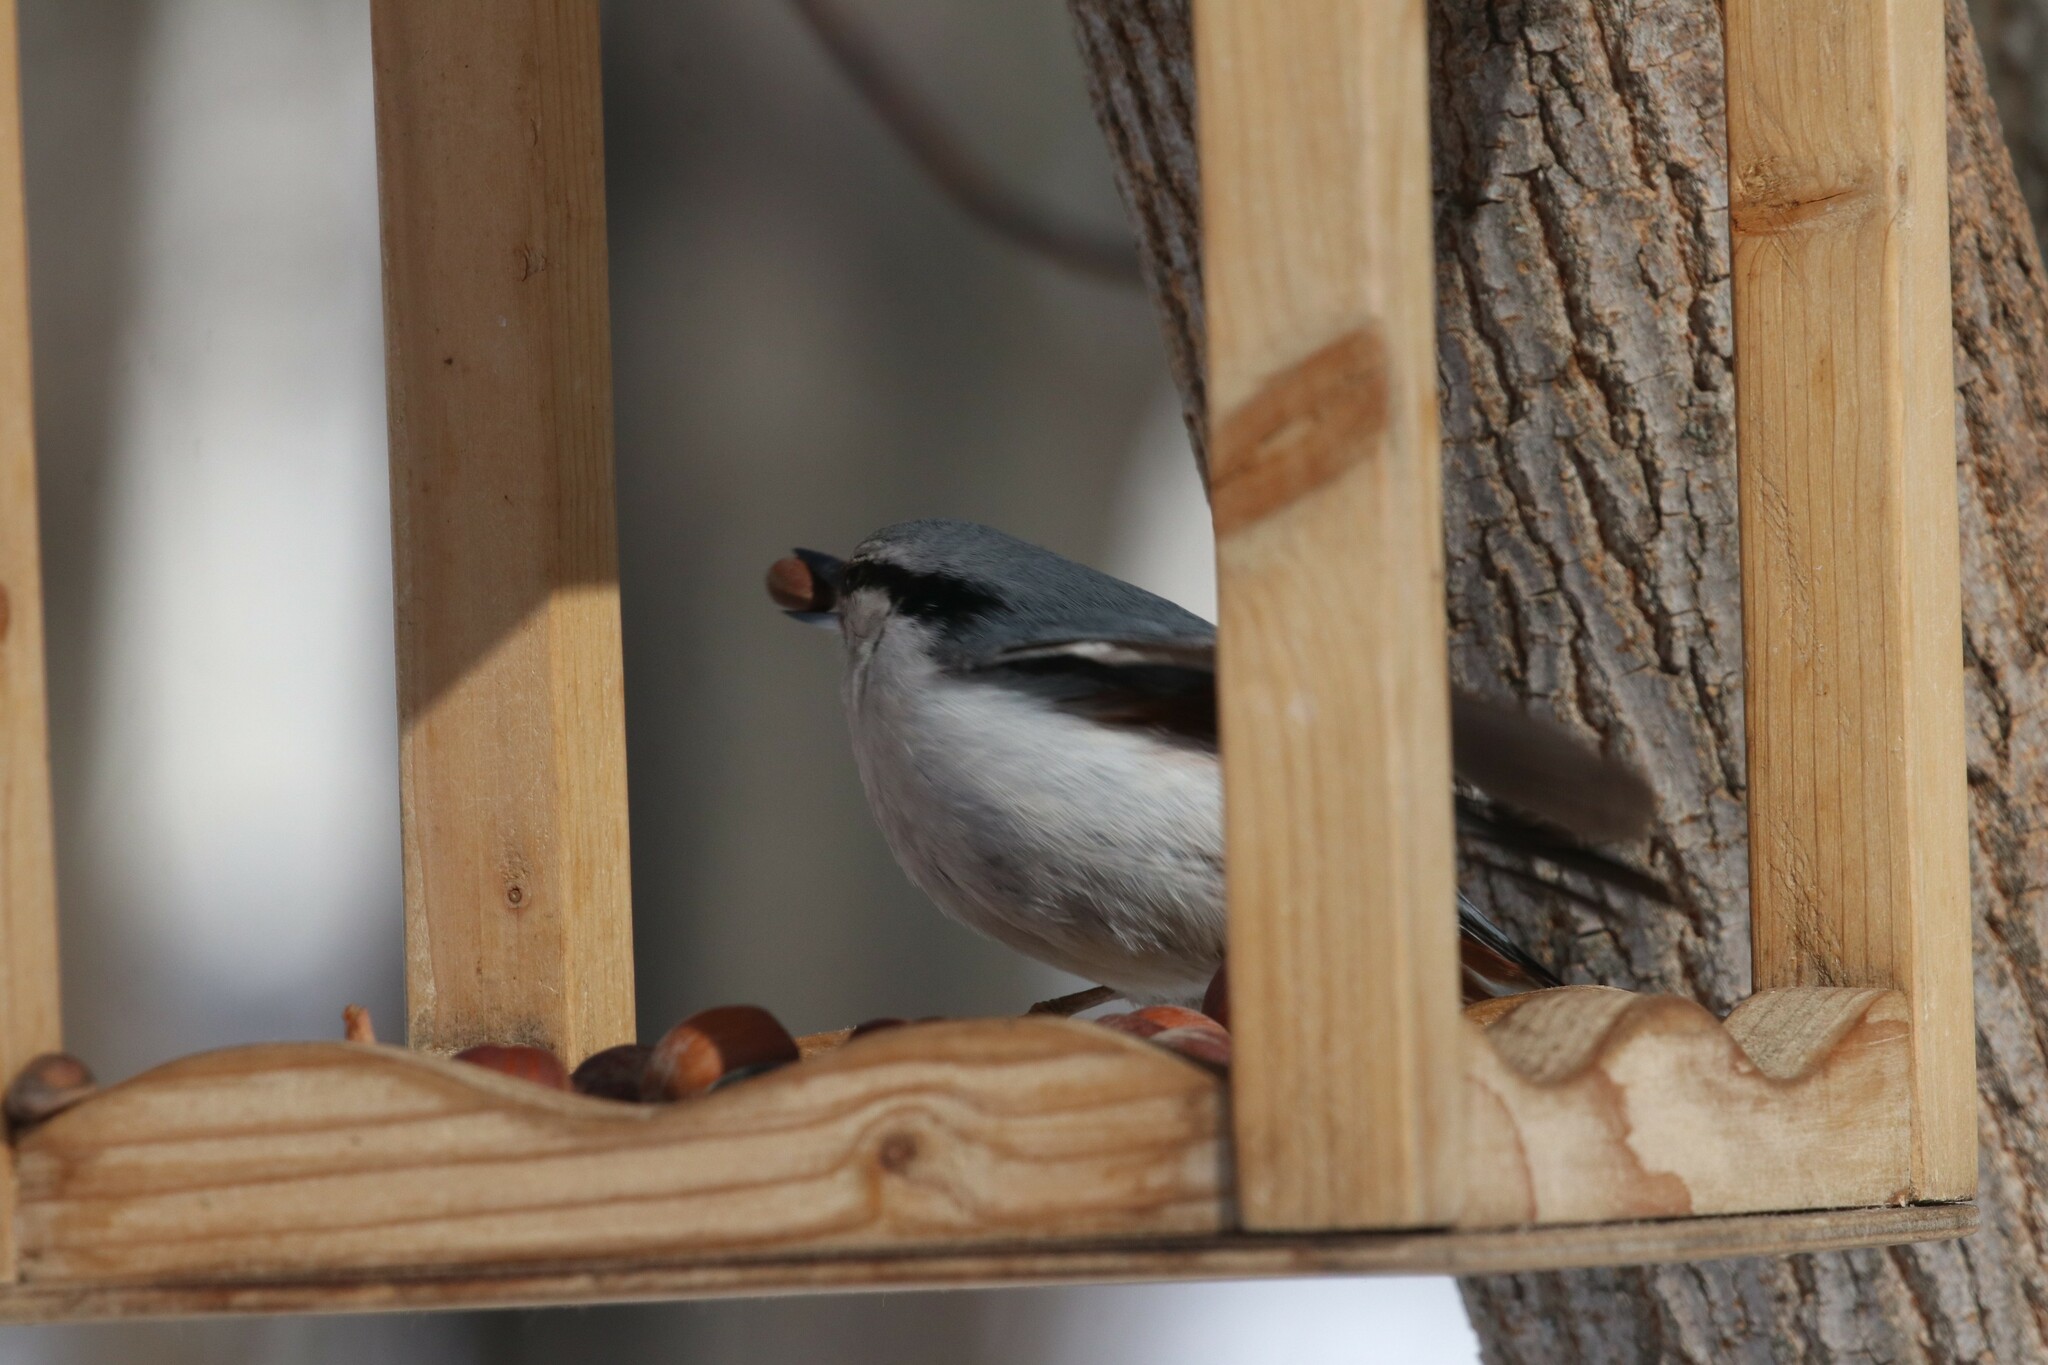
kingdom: Animalia
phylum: Chordata
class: Aves
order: Passeriformes
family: Sittidae
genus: Sitta
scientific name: Sitta europaea
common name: Eurasian nuthatch
